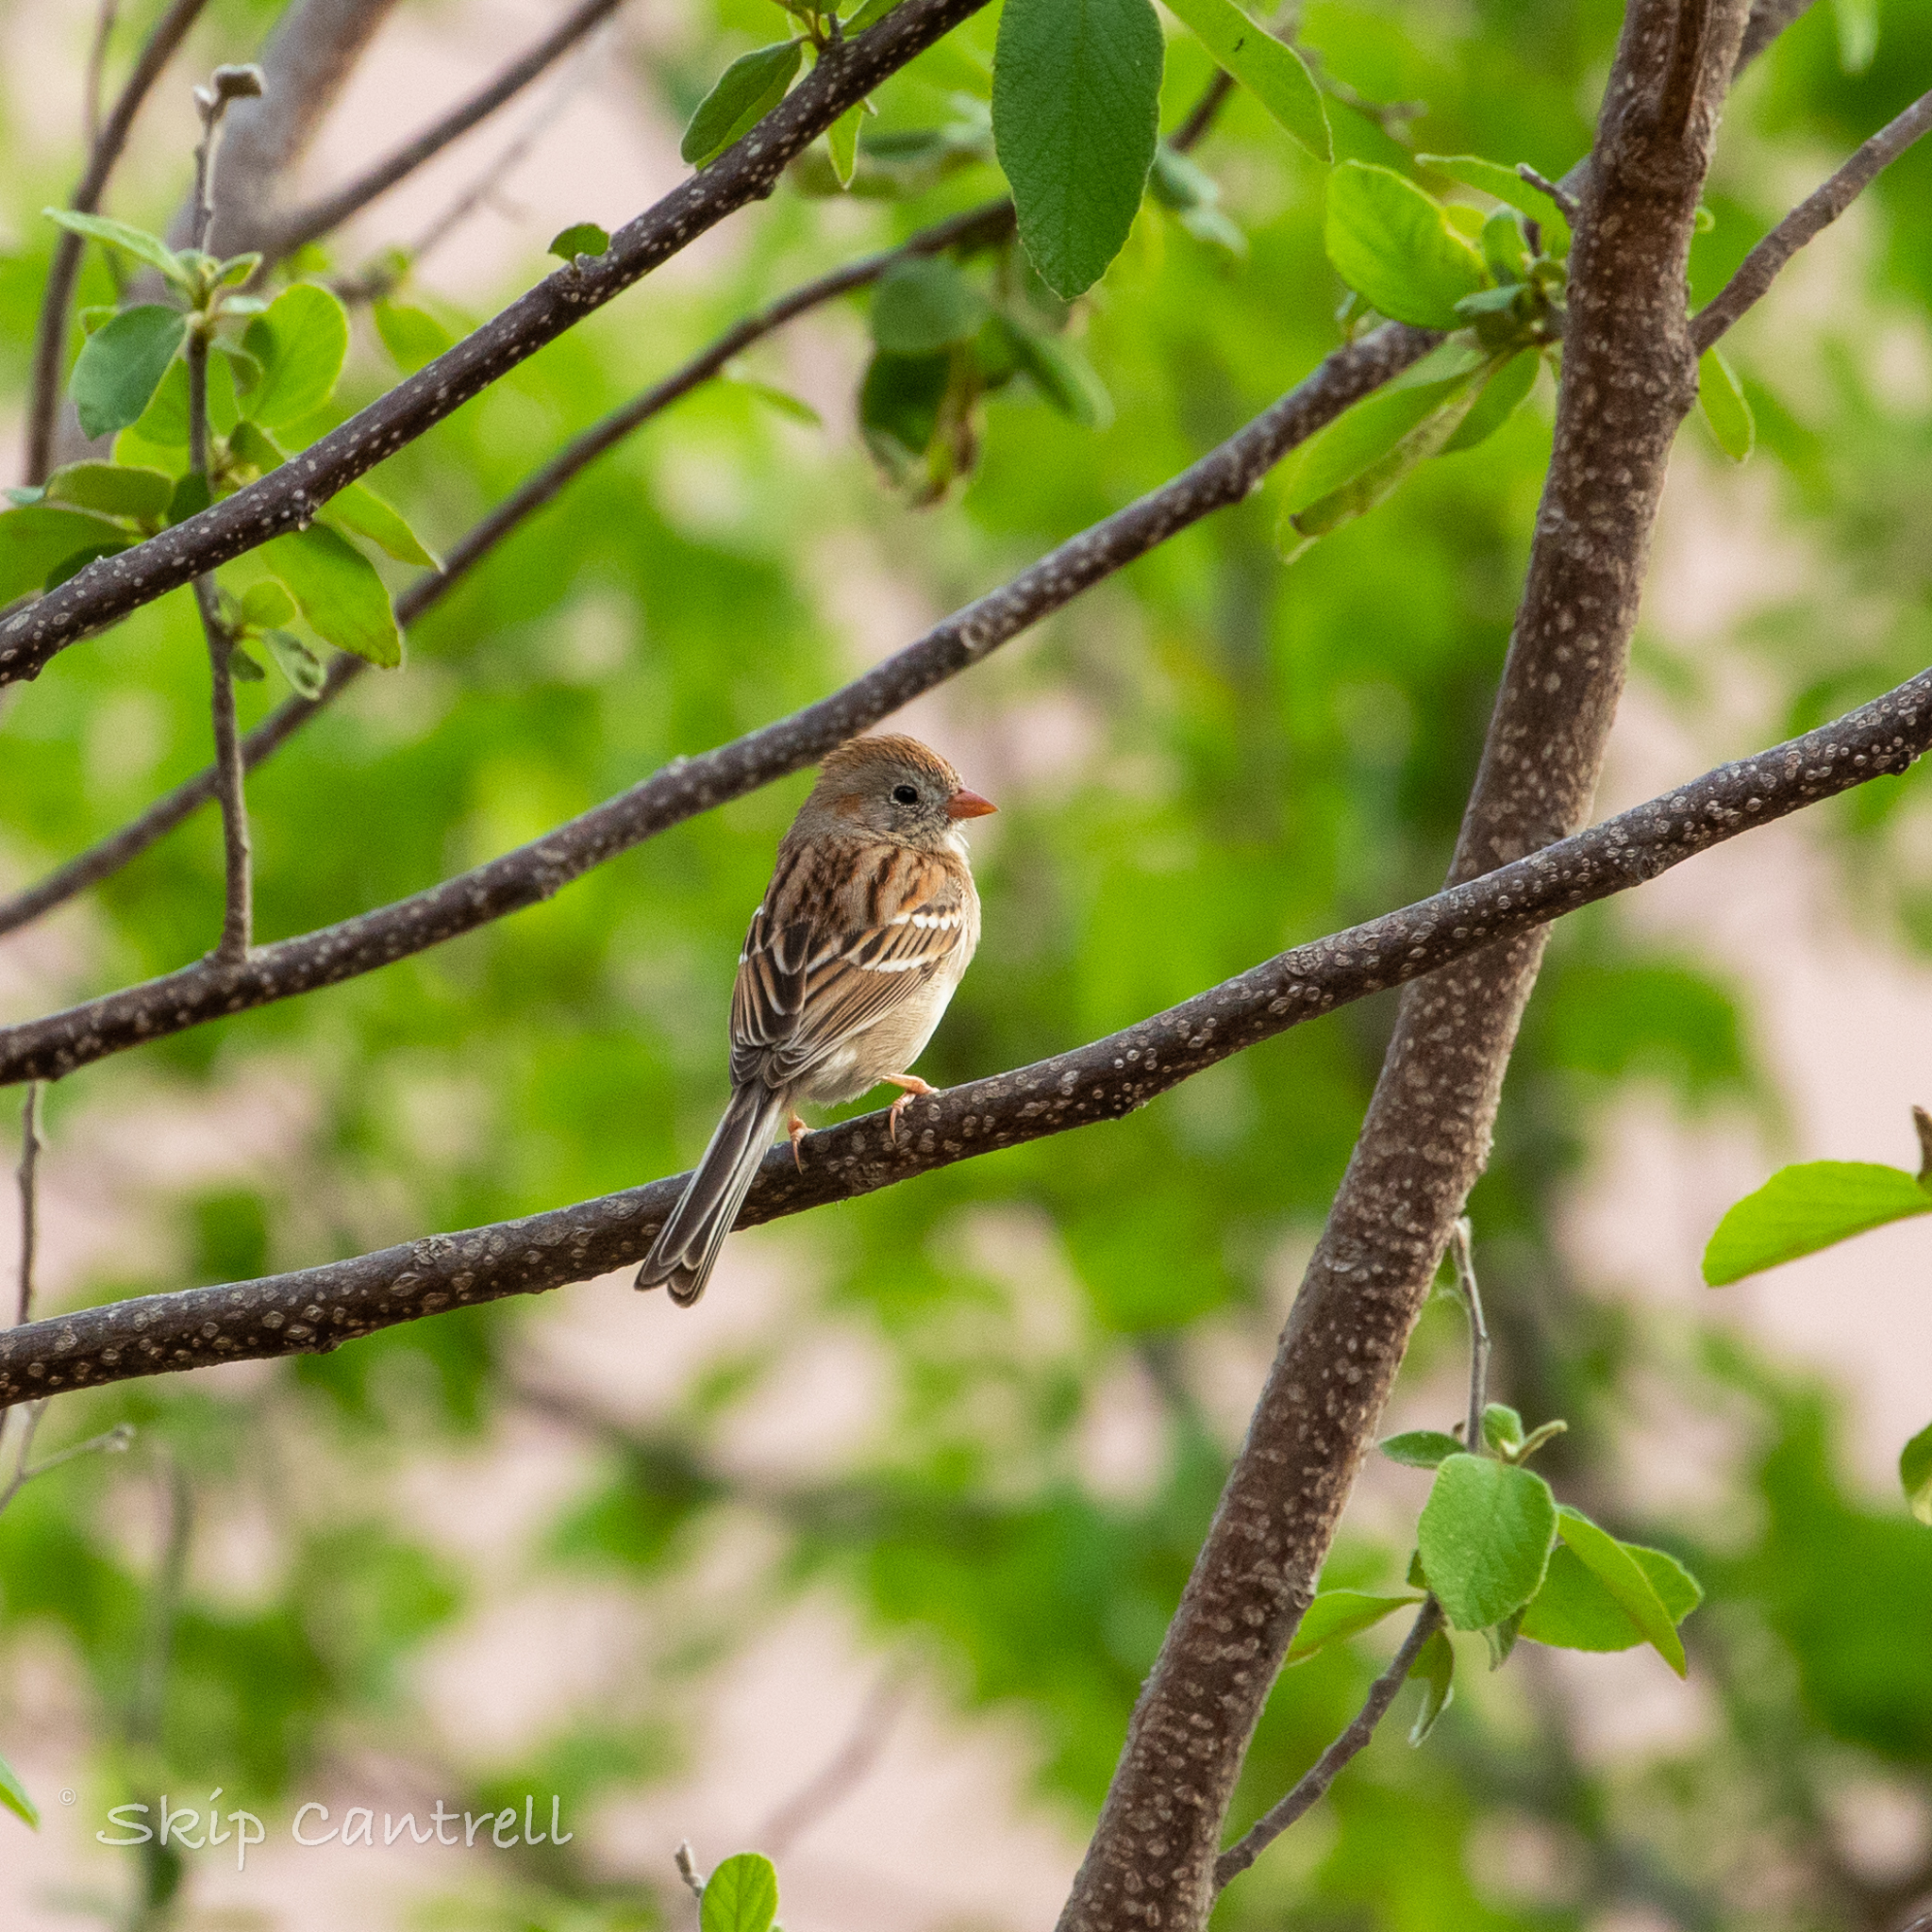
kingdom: Animalia
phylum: Chordata
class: Aves
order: Passeriformes
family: Passerellidae
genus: Spizella
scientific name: Spizella pusilla
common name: Field sparrow
